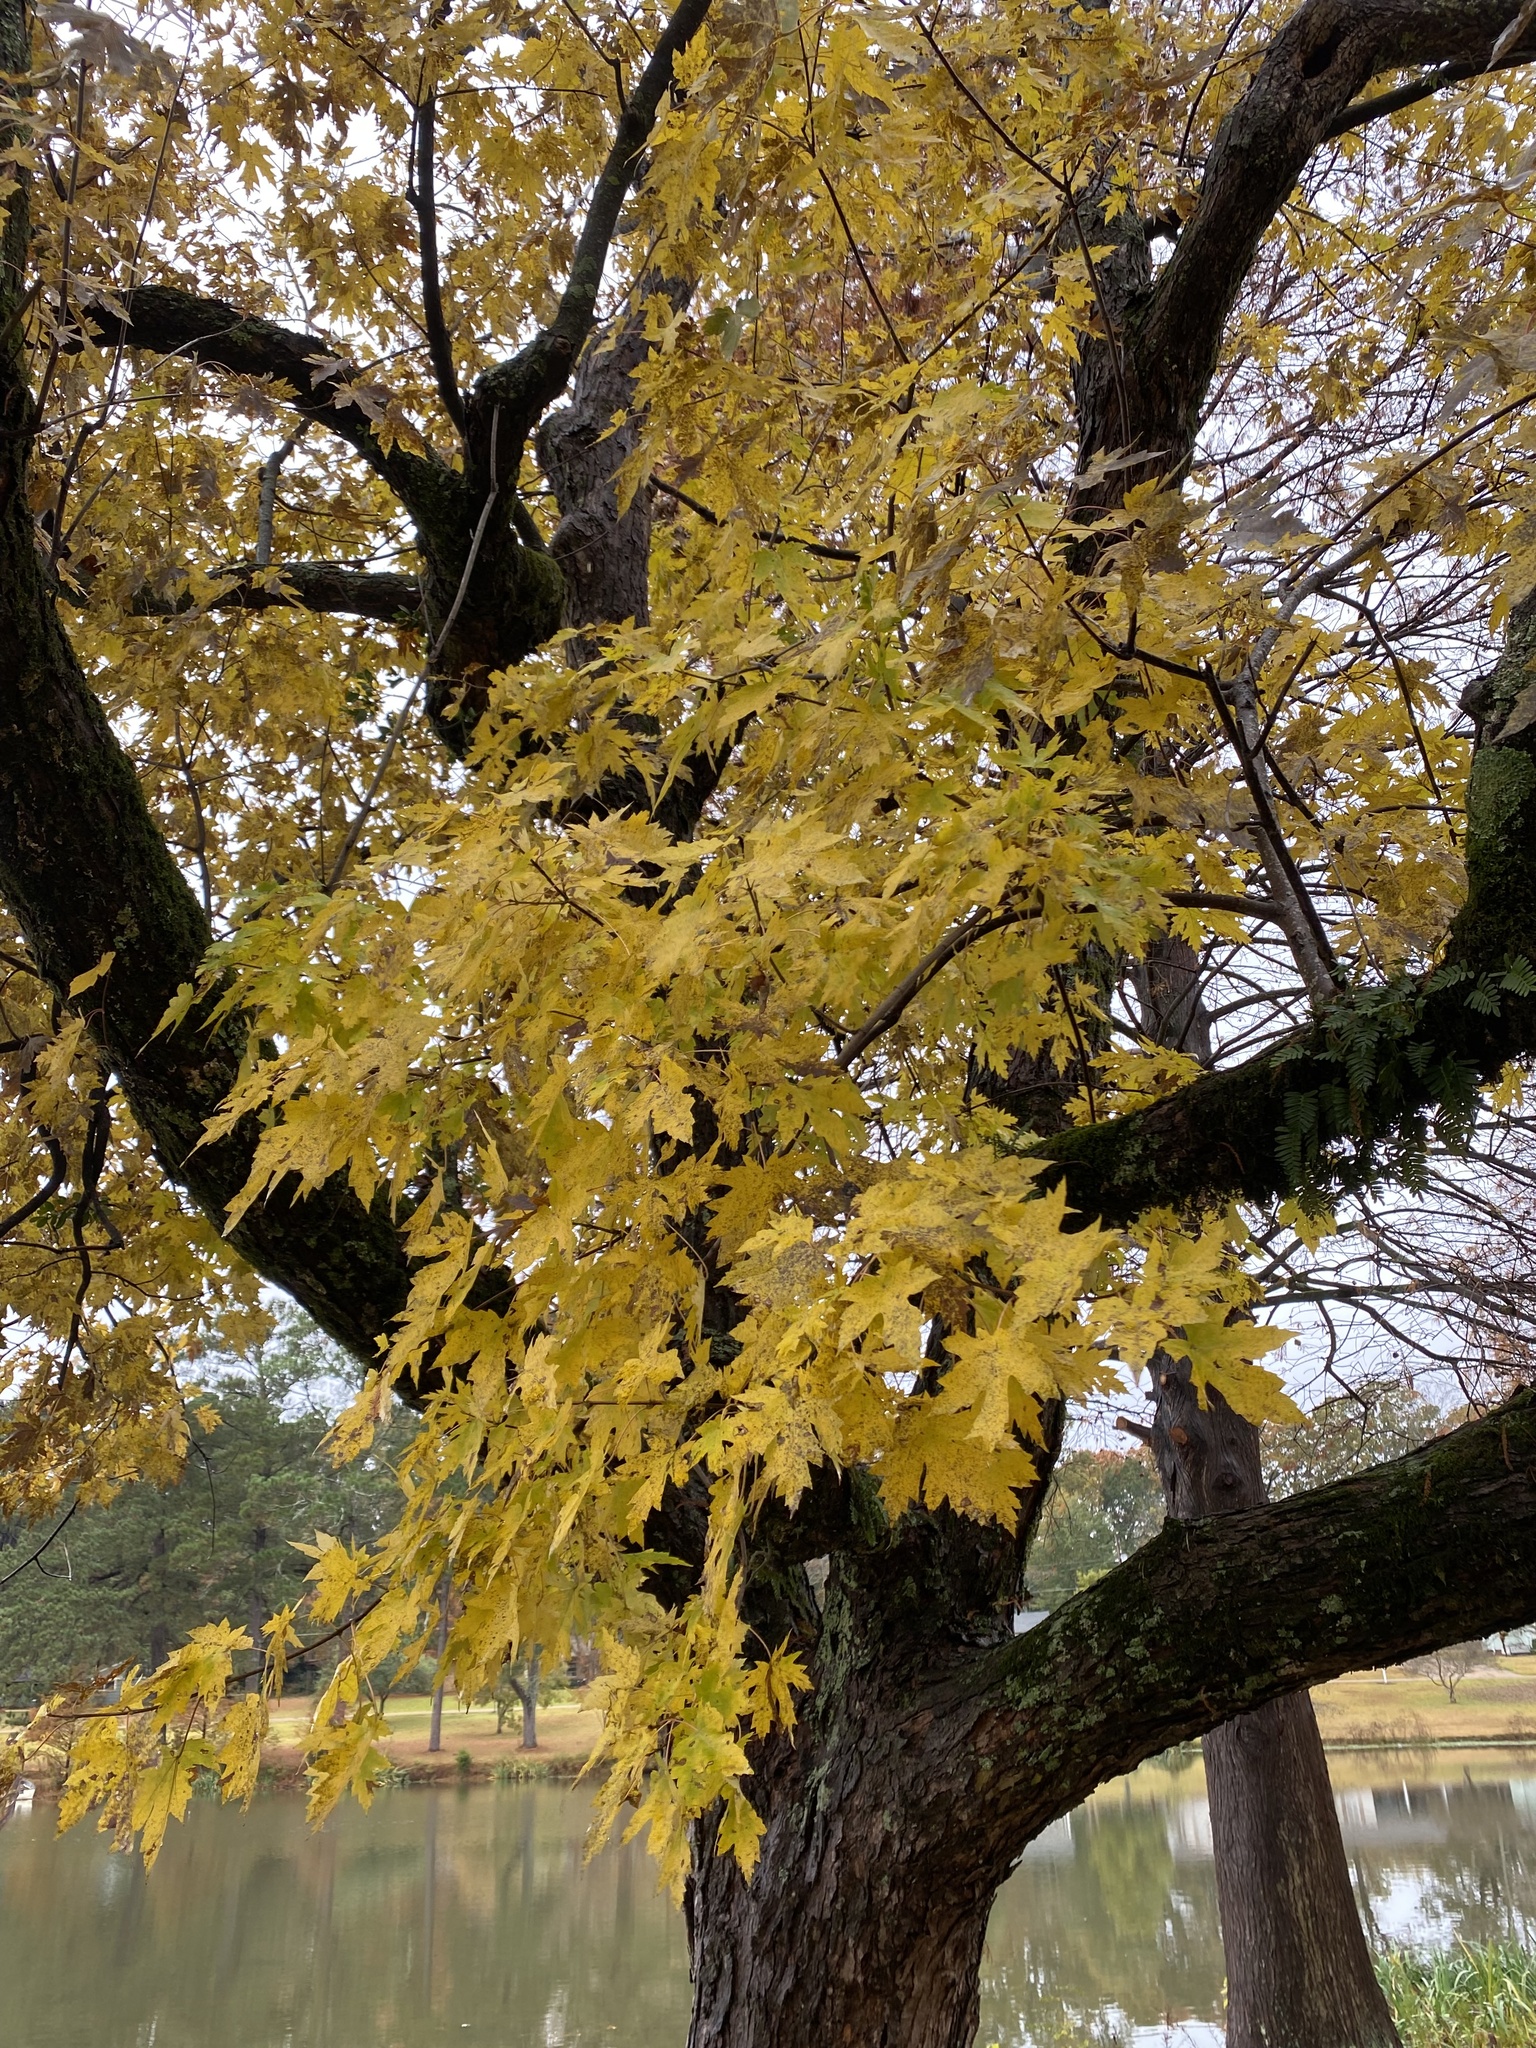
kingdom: Plantae
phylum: Tracheophyta
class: Magnoliopsida
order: Sapindales
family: Sapindaceae
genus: Acer
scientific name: Acer saccharinum
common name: Silver maple
